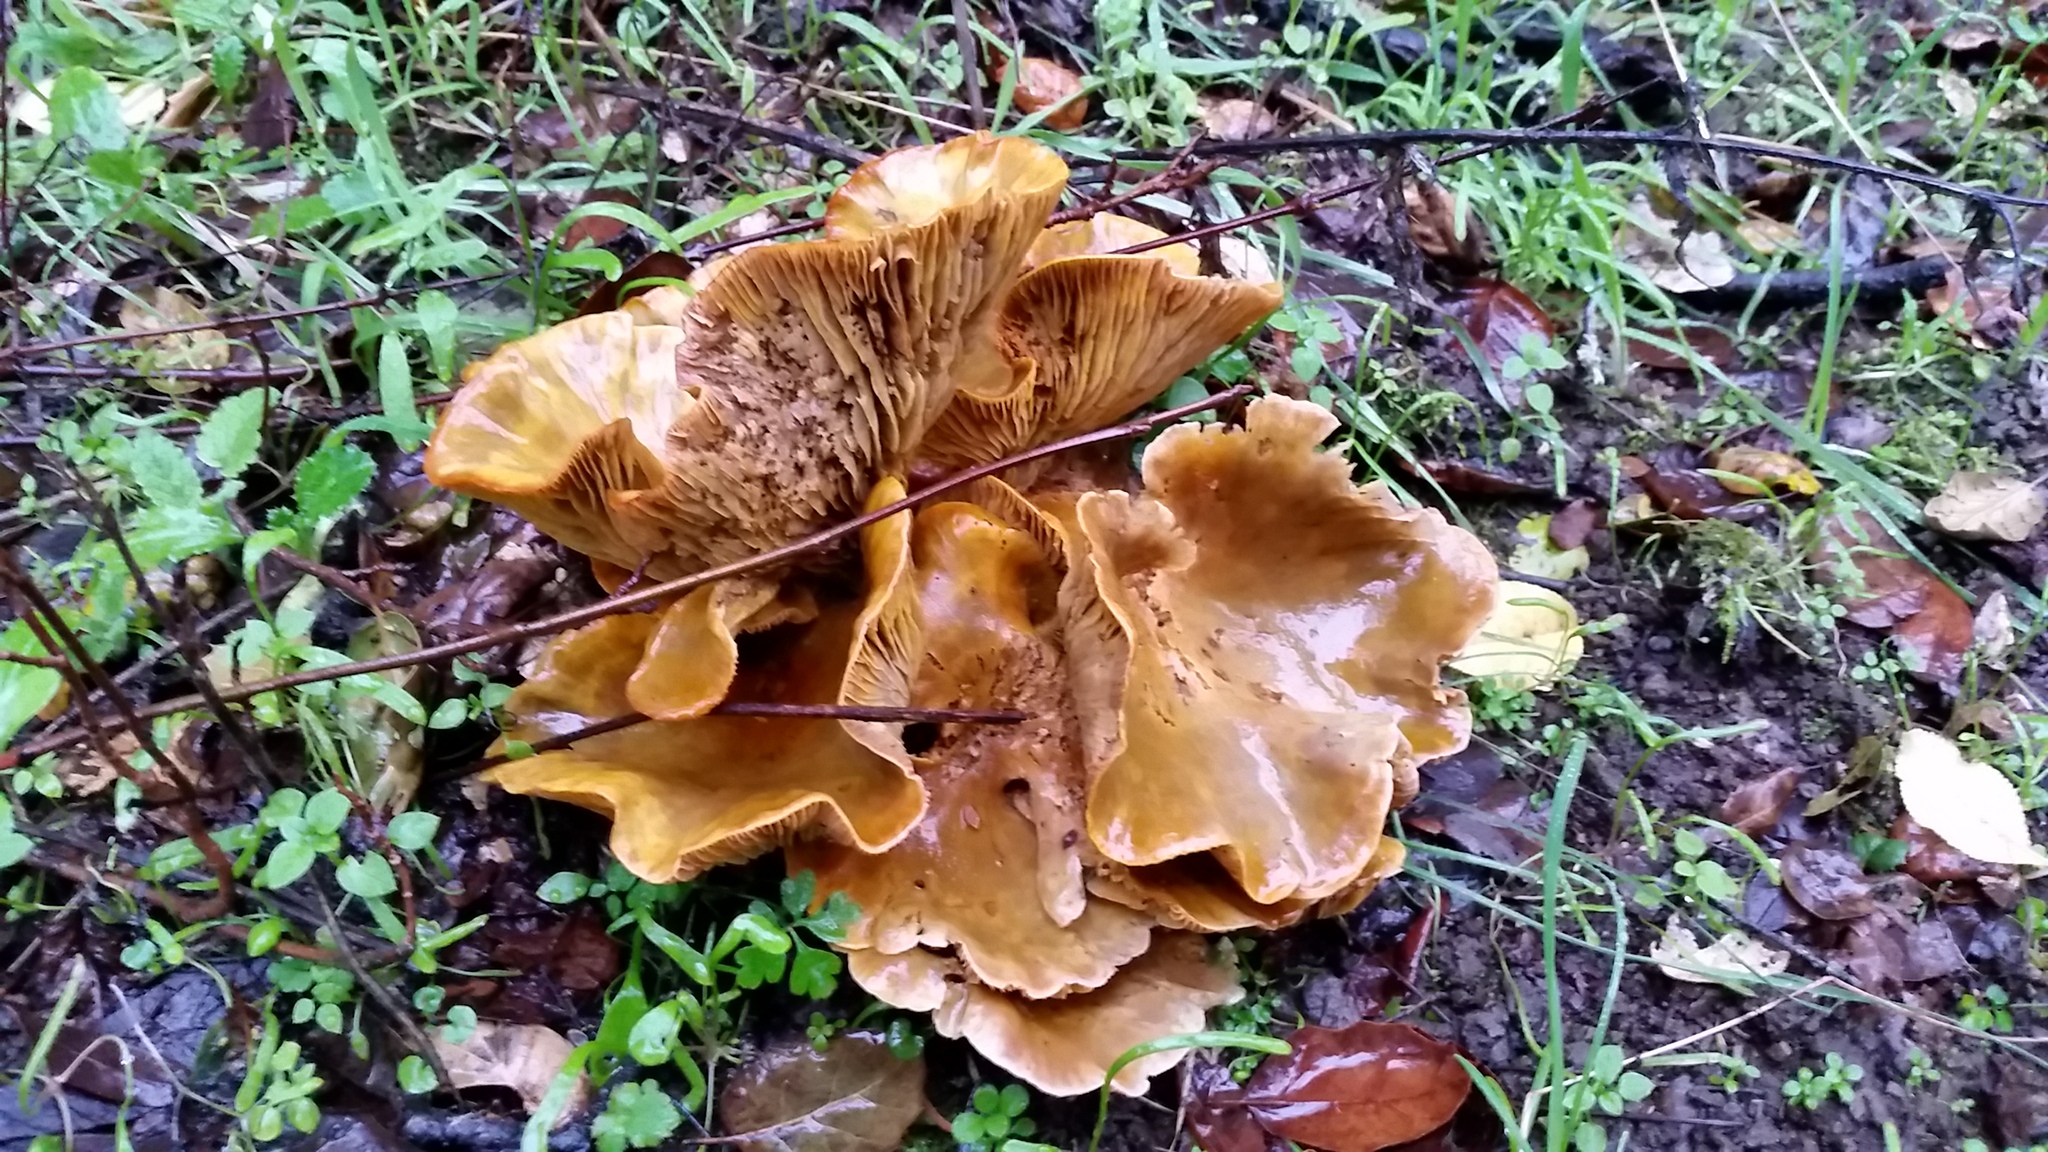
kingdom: Fungi
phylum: Basidiomycota
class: Agaricomycetes
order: Agaricales
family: Omphalotaceae
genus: Omphalotus
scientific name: Omphalotus olivascens
